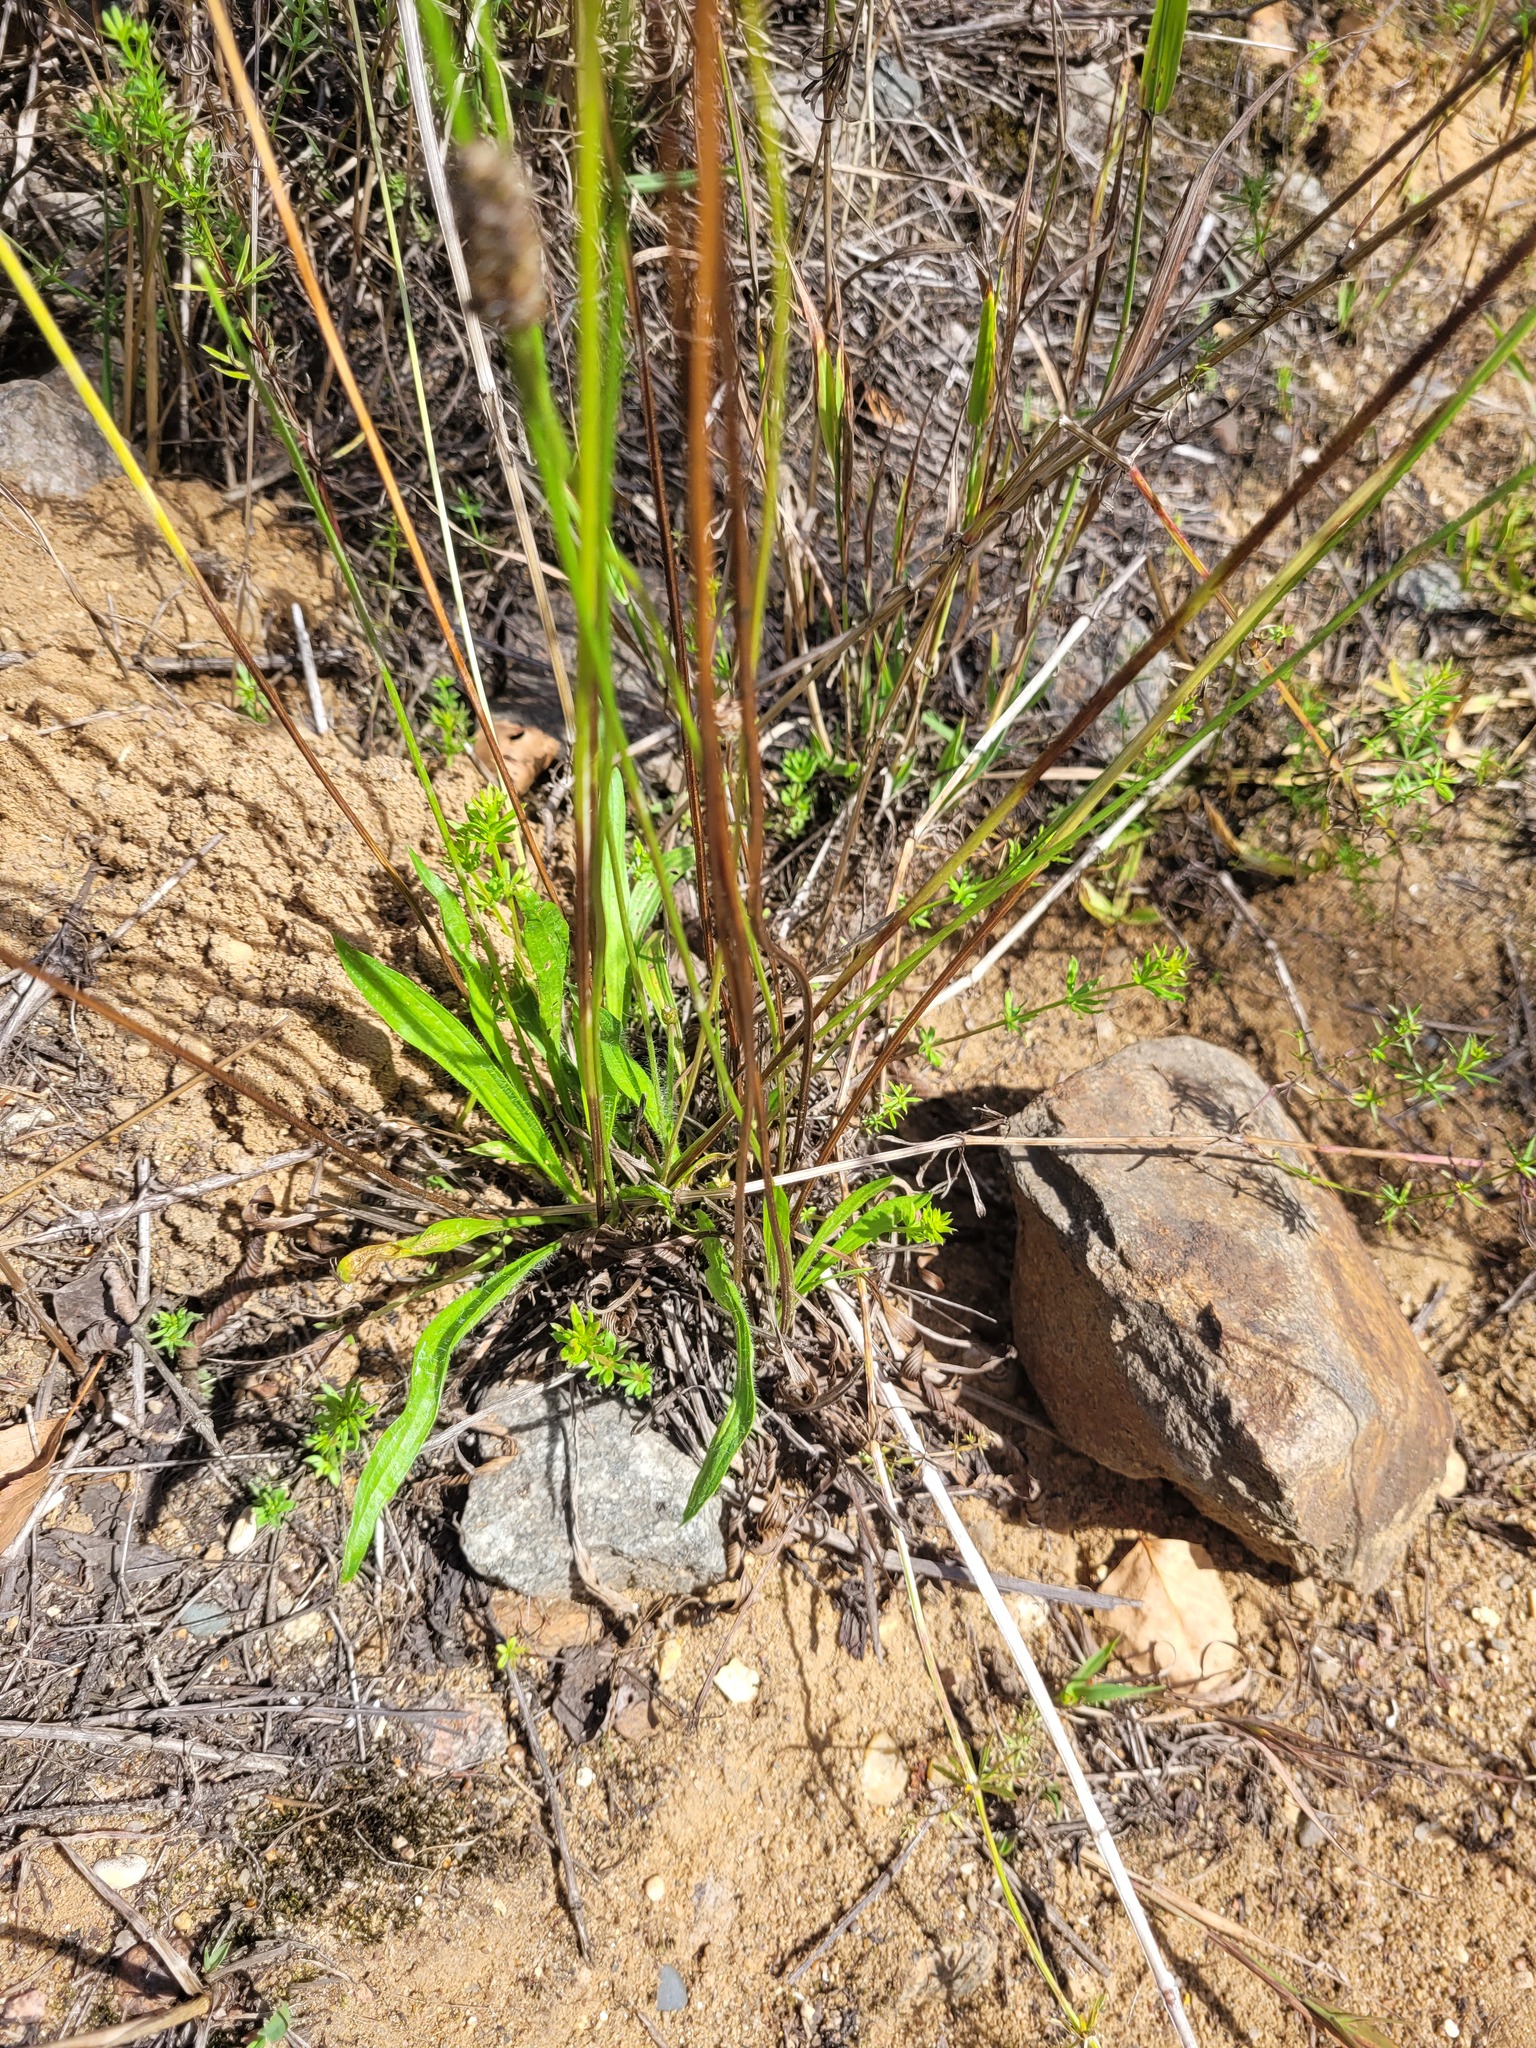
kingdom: Plantae
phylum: Tracheophyta
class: Magnoliopsida
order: Lamiales
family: Plantaginaceae
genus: Plantago
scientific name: Plantago lanceolata
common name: Ribwort plantain
